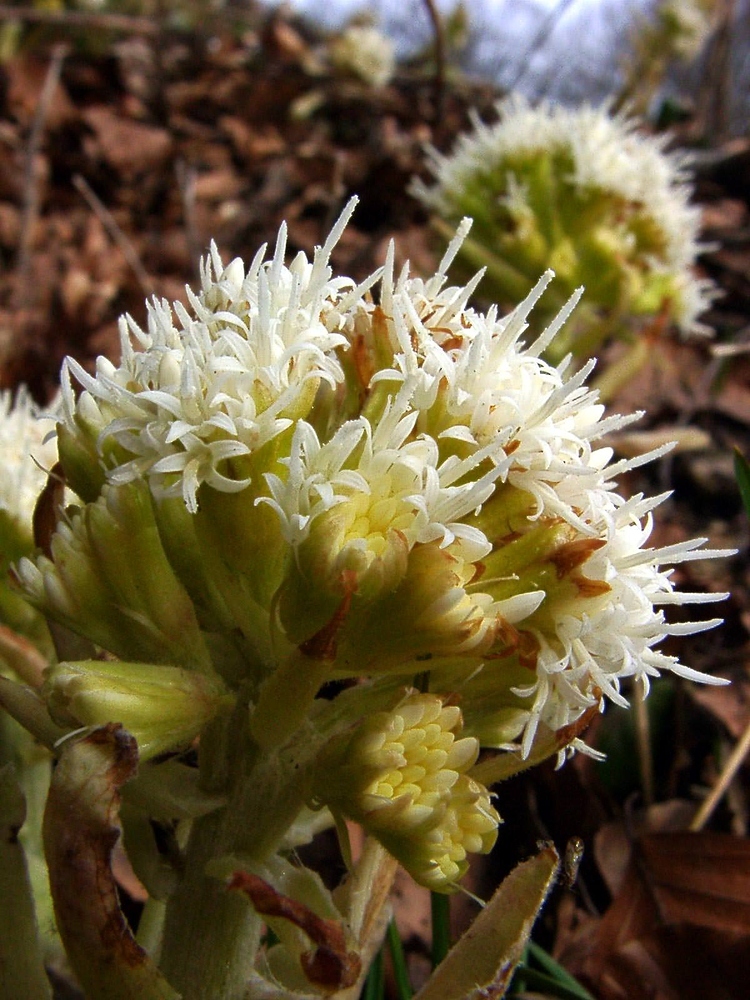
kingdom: Plantae
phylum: Tracheophyta
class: Magnoliopsida
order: Asterales
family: Asteraceae
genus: Petasites
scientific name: Petasites albus
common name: White butterbur
